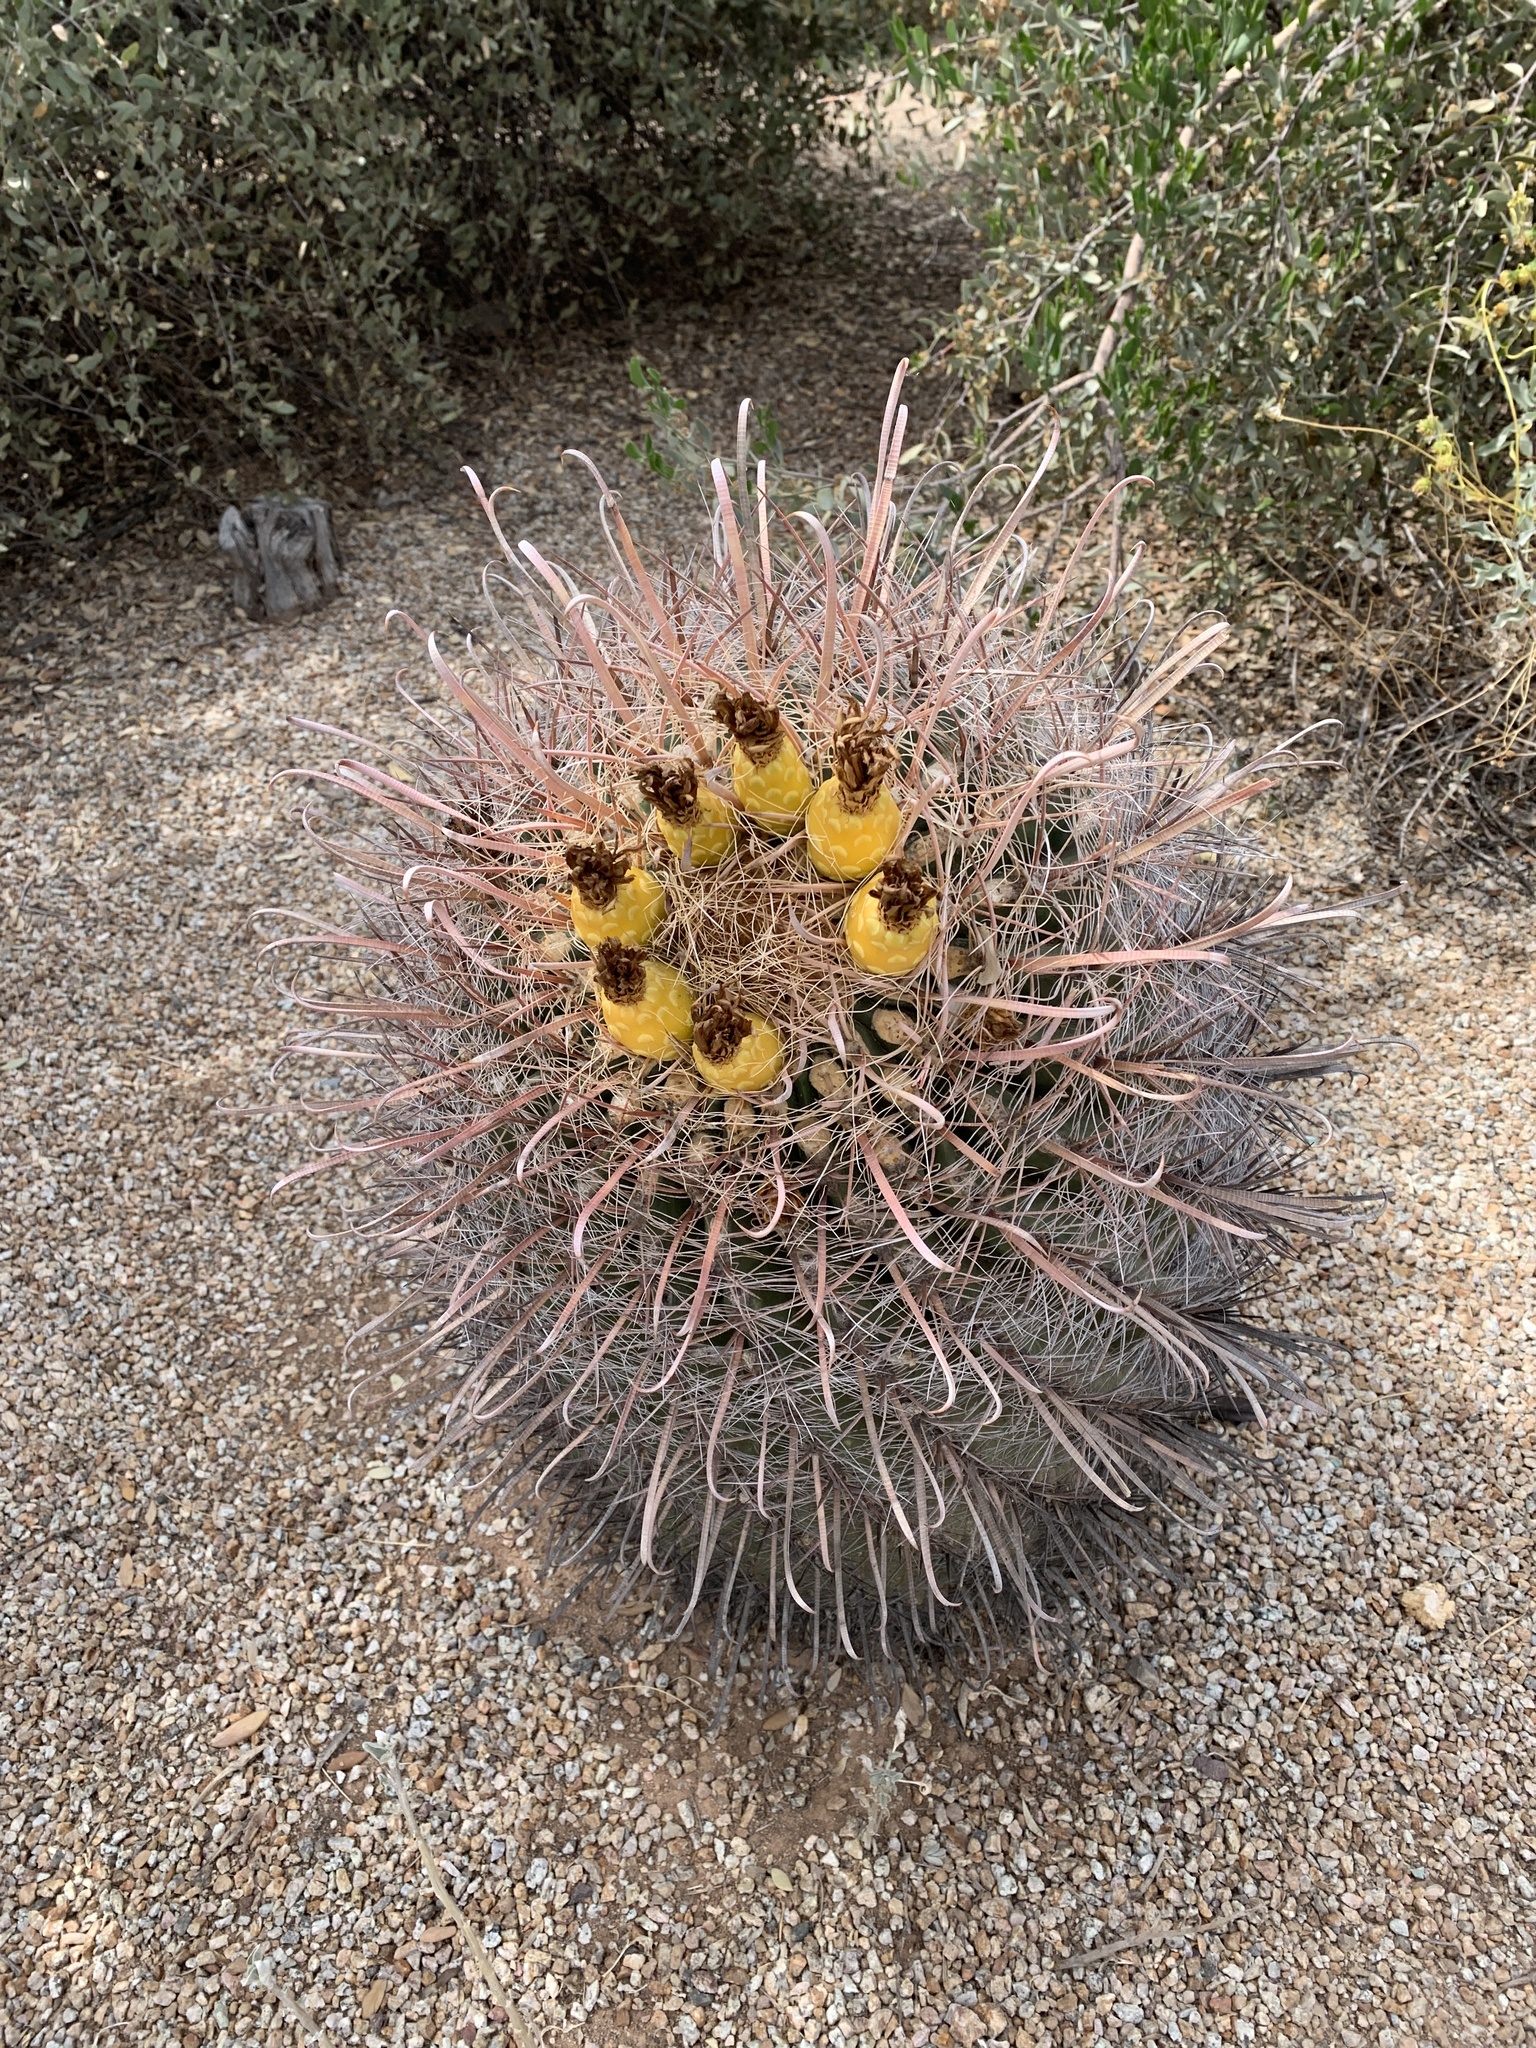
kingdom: Plantae
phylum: Tracheophyta
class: Magnoliopsida
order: Caryophyllales
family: Cactaceae
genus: Ferocactus
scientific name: Ferocactus wislizeni
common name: Candy barrel cactus
